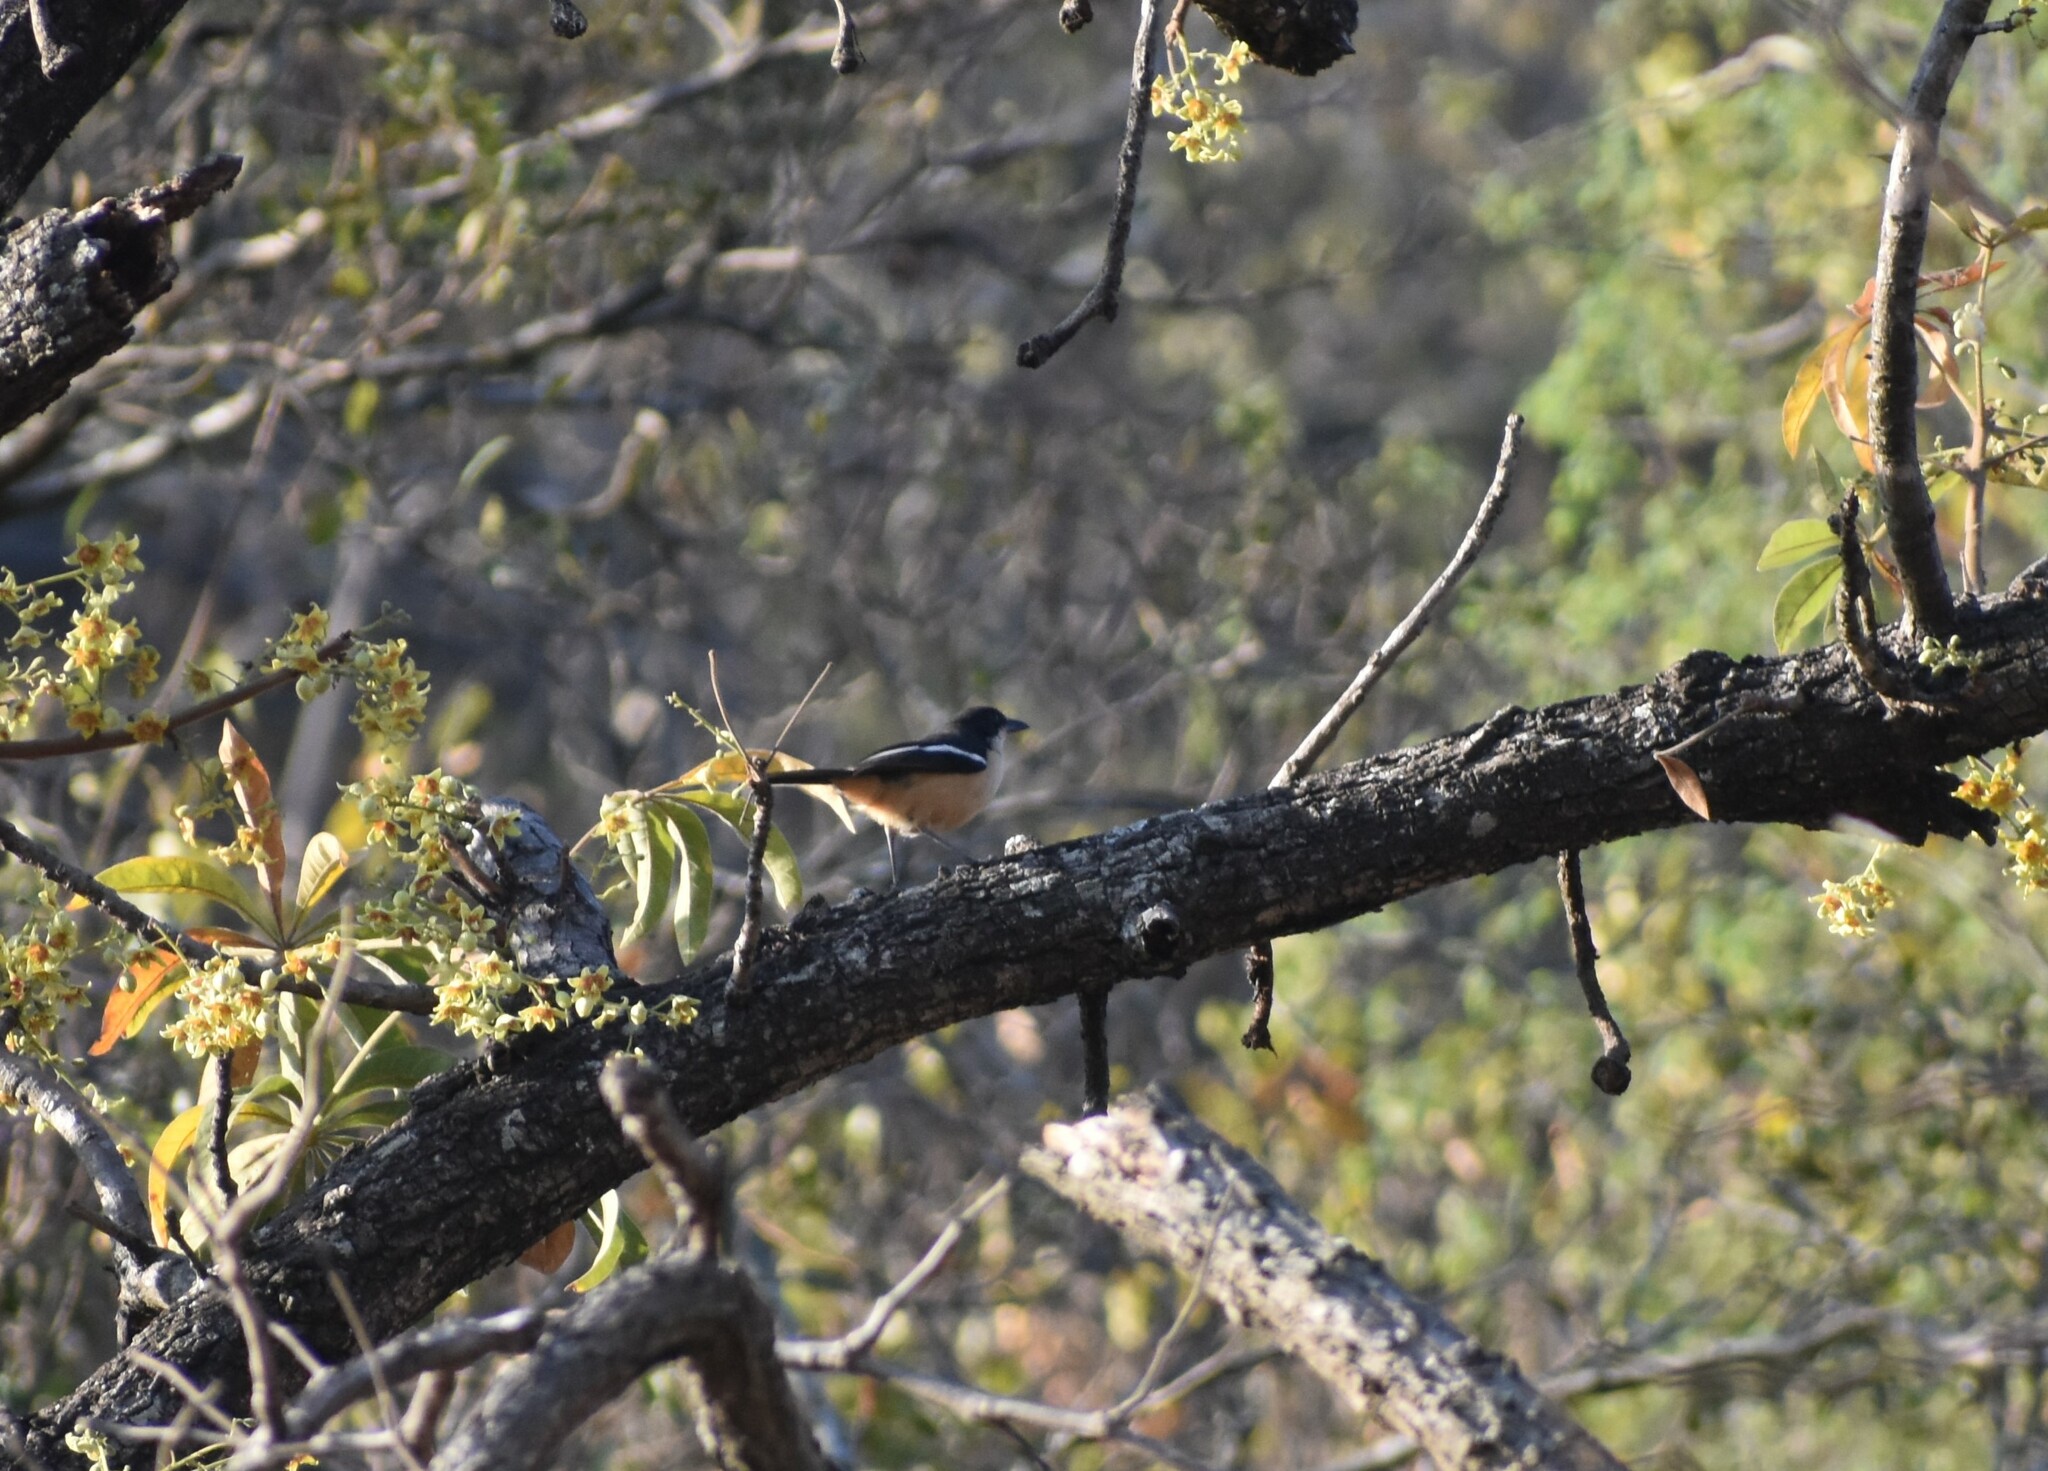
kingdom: Animalia
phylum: Chordata
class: Aves
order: Passeriformes
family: Malaconotidae
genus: Laniarius
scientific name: Laniarius ferrugineus
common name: Southern boubou
